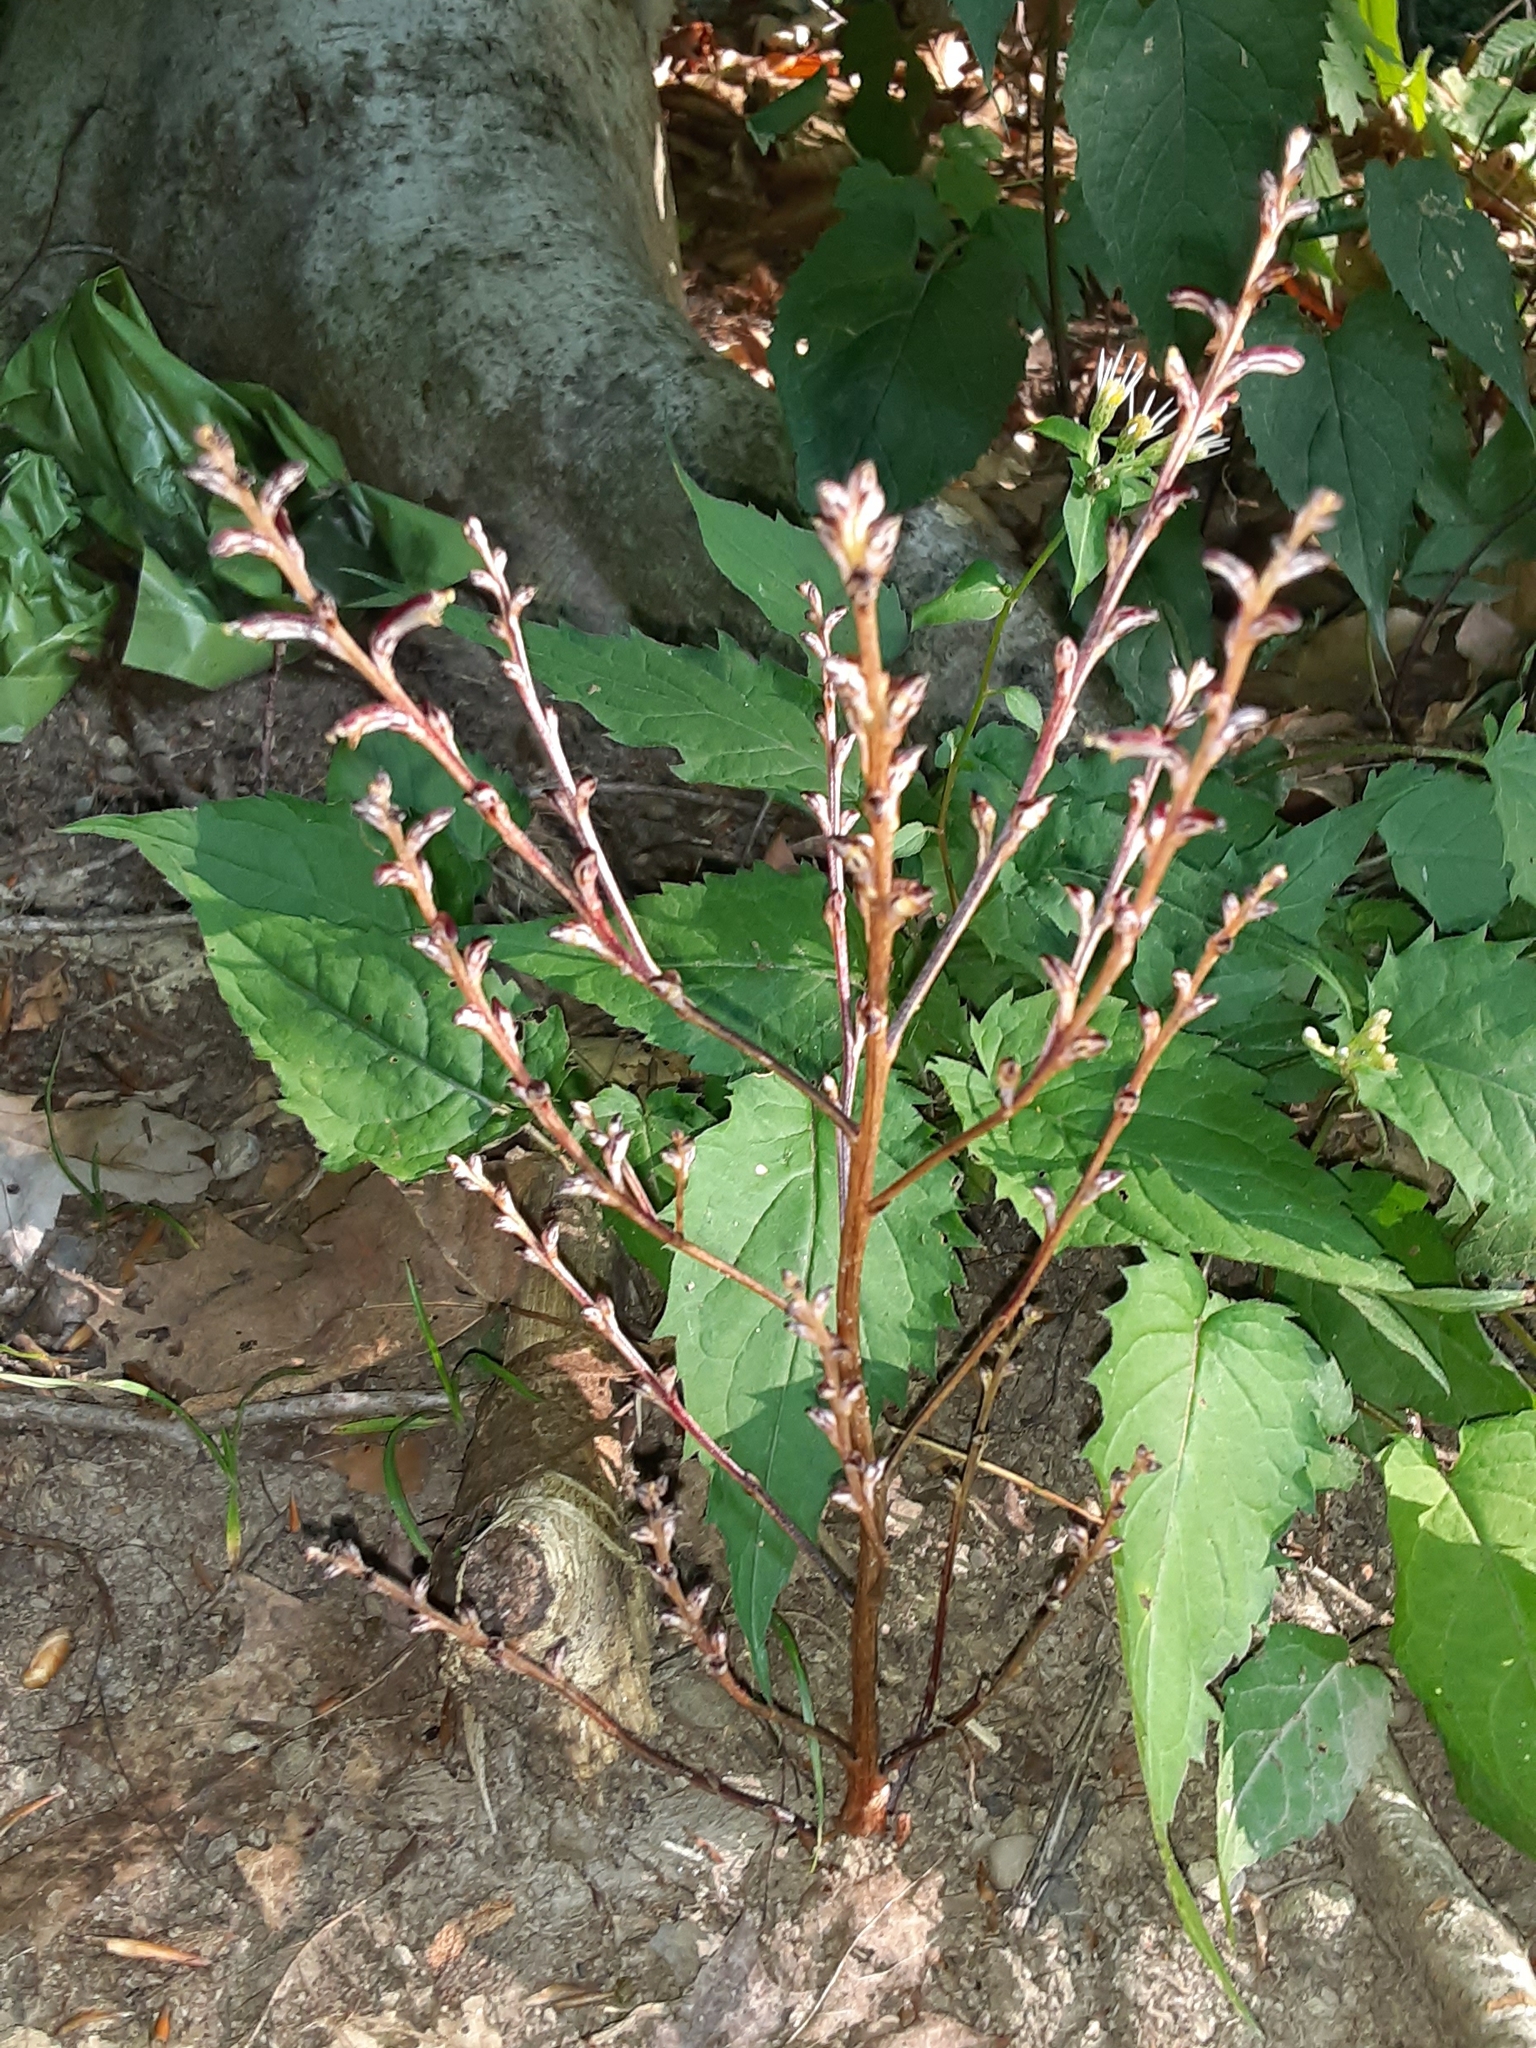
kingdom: Plantae
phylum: Tracheophyta
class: Magnoliopsida
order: Lamiales
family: Orobanchaceae
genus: Epifagus
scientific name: Epifagus virginiana
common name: Beechdrops
